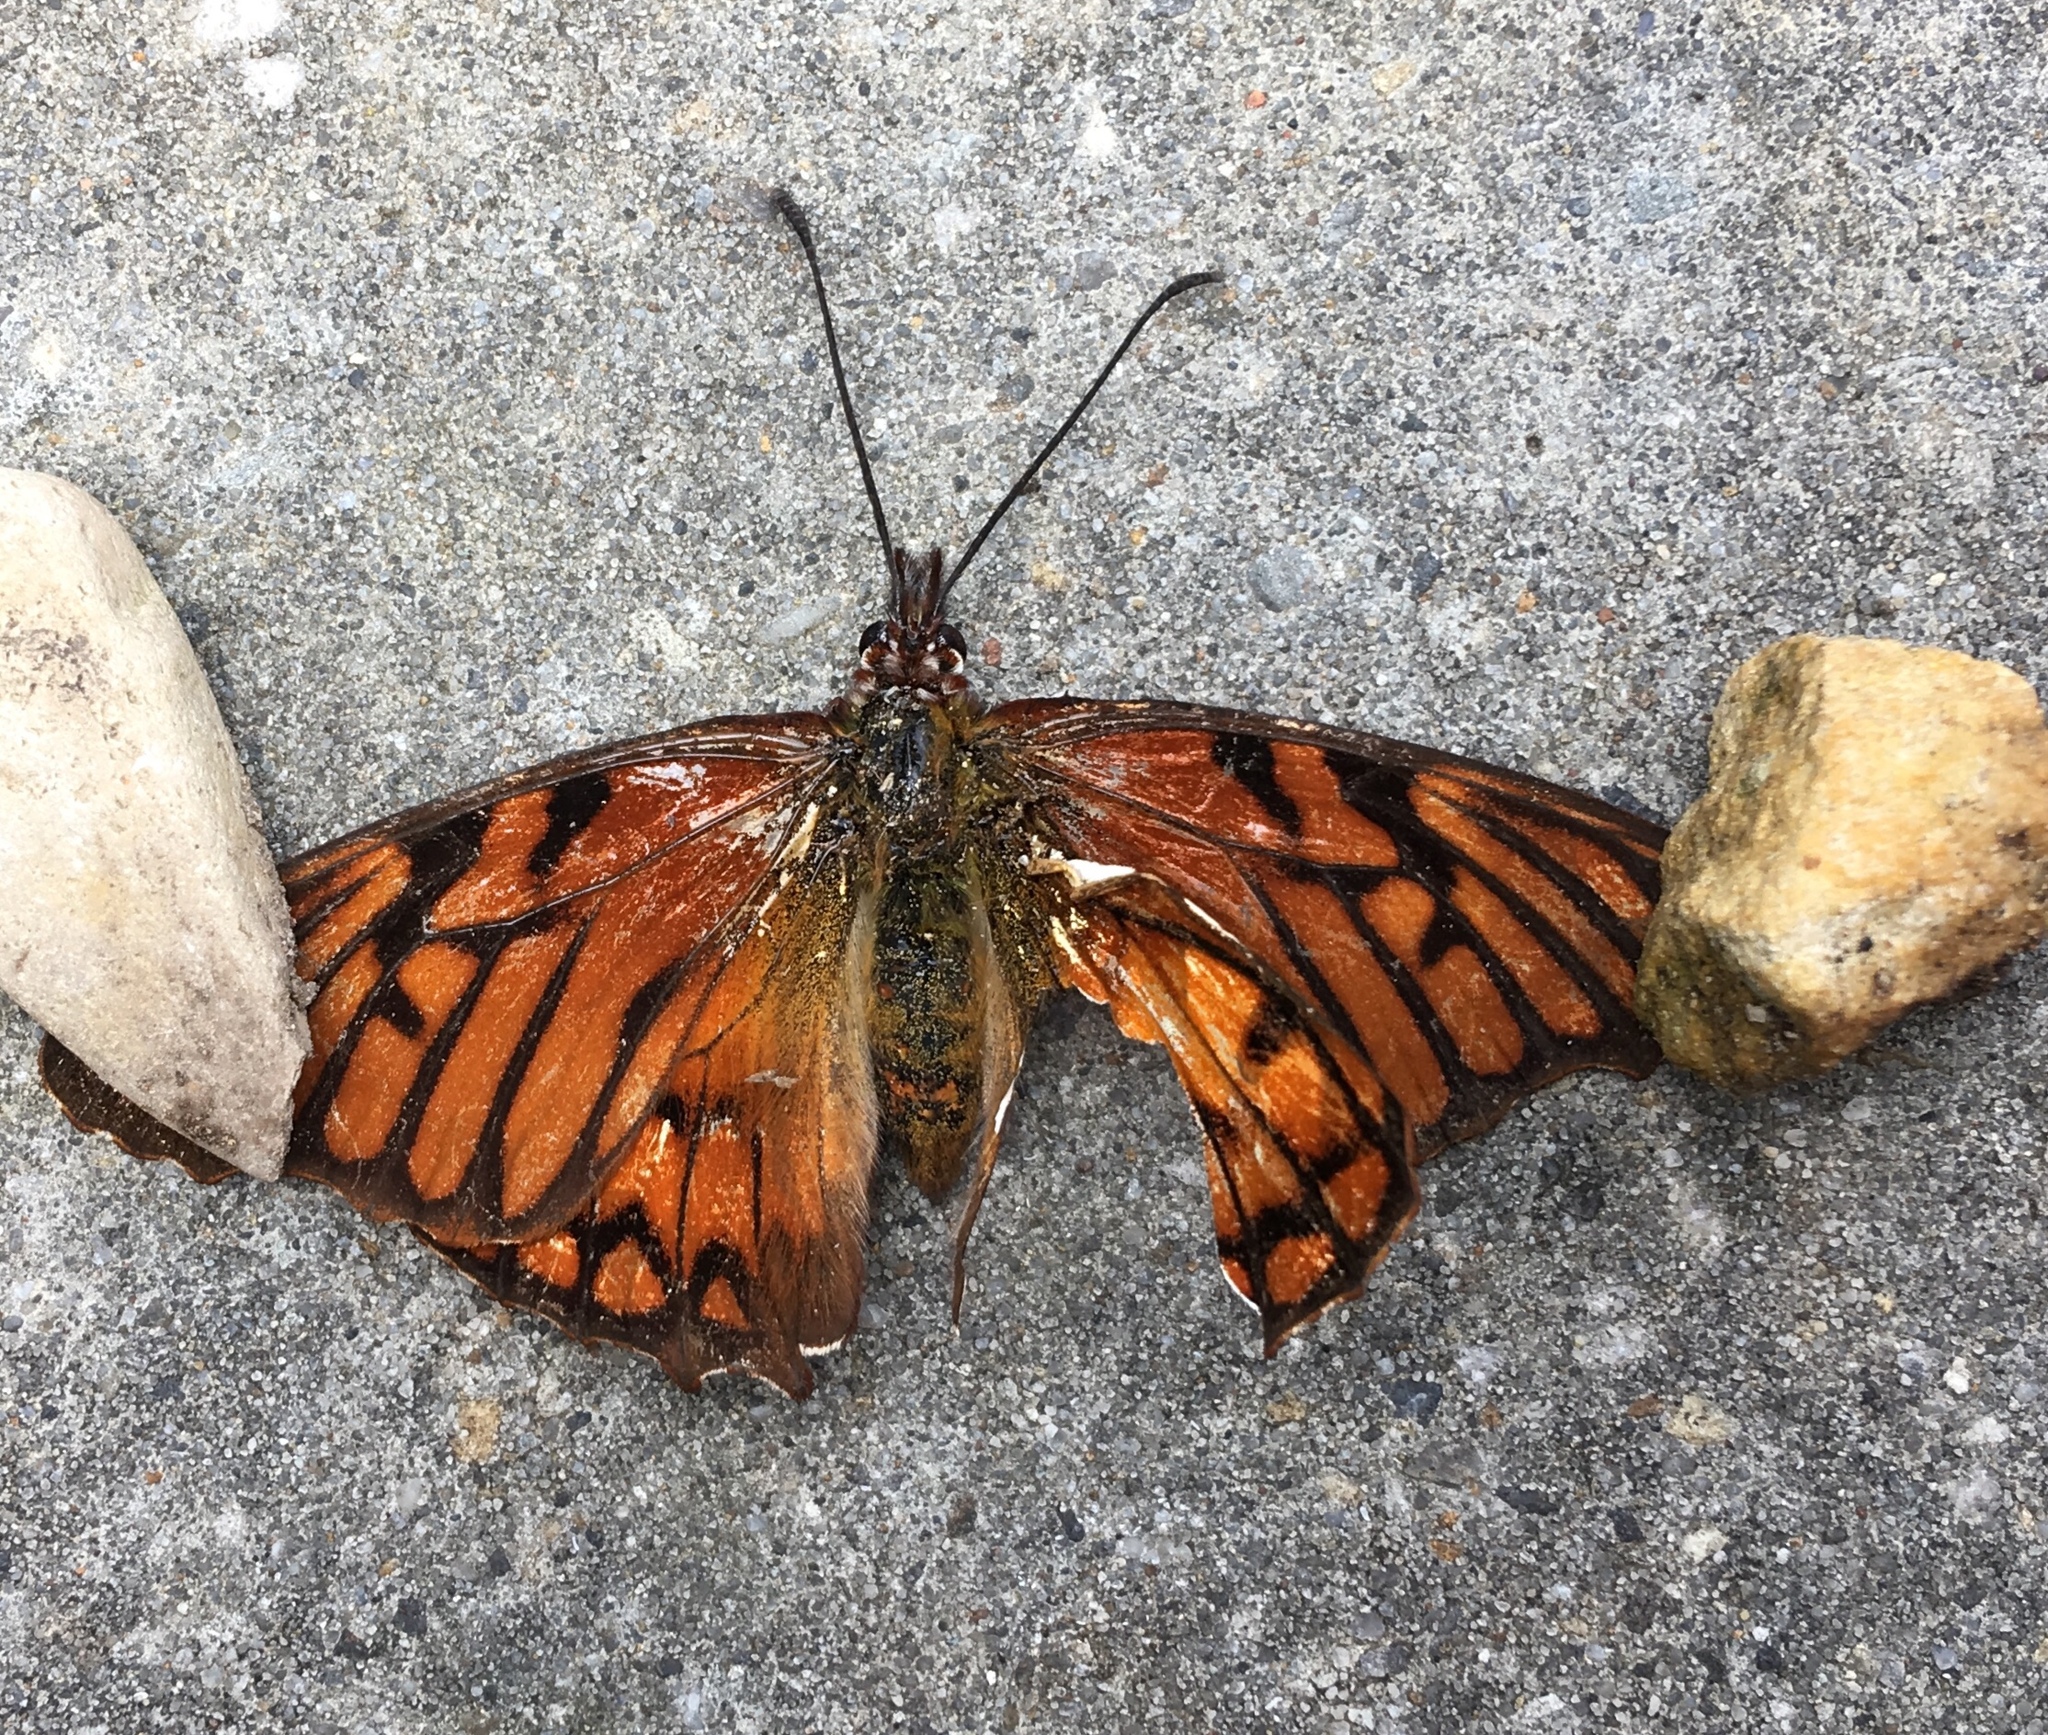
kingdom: Animalia
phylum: Arthropoda
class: Insecta
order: Lepidoptera
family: Nymphalidae
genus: Dione
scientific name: Dione glycera
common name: Andean silverspot
